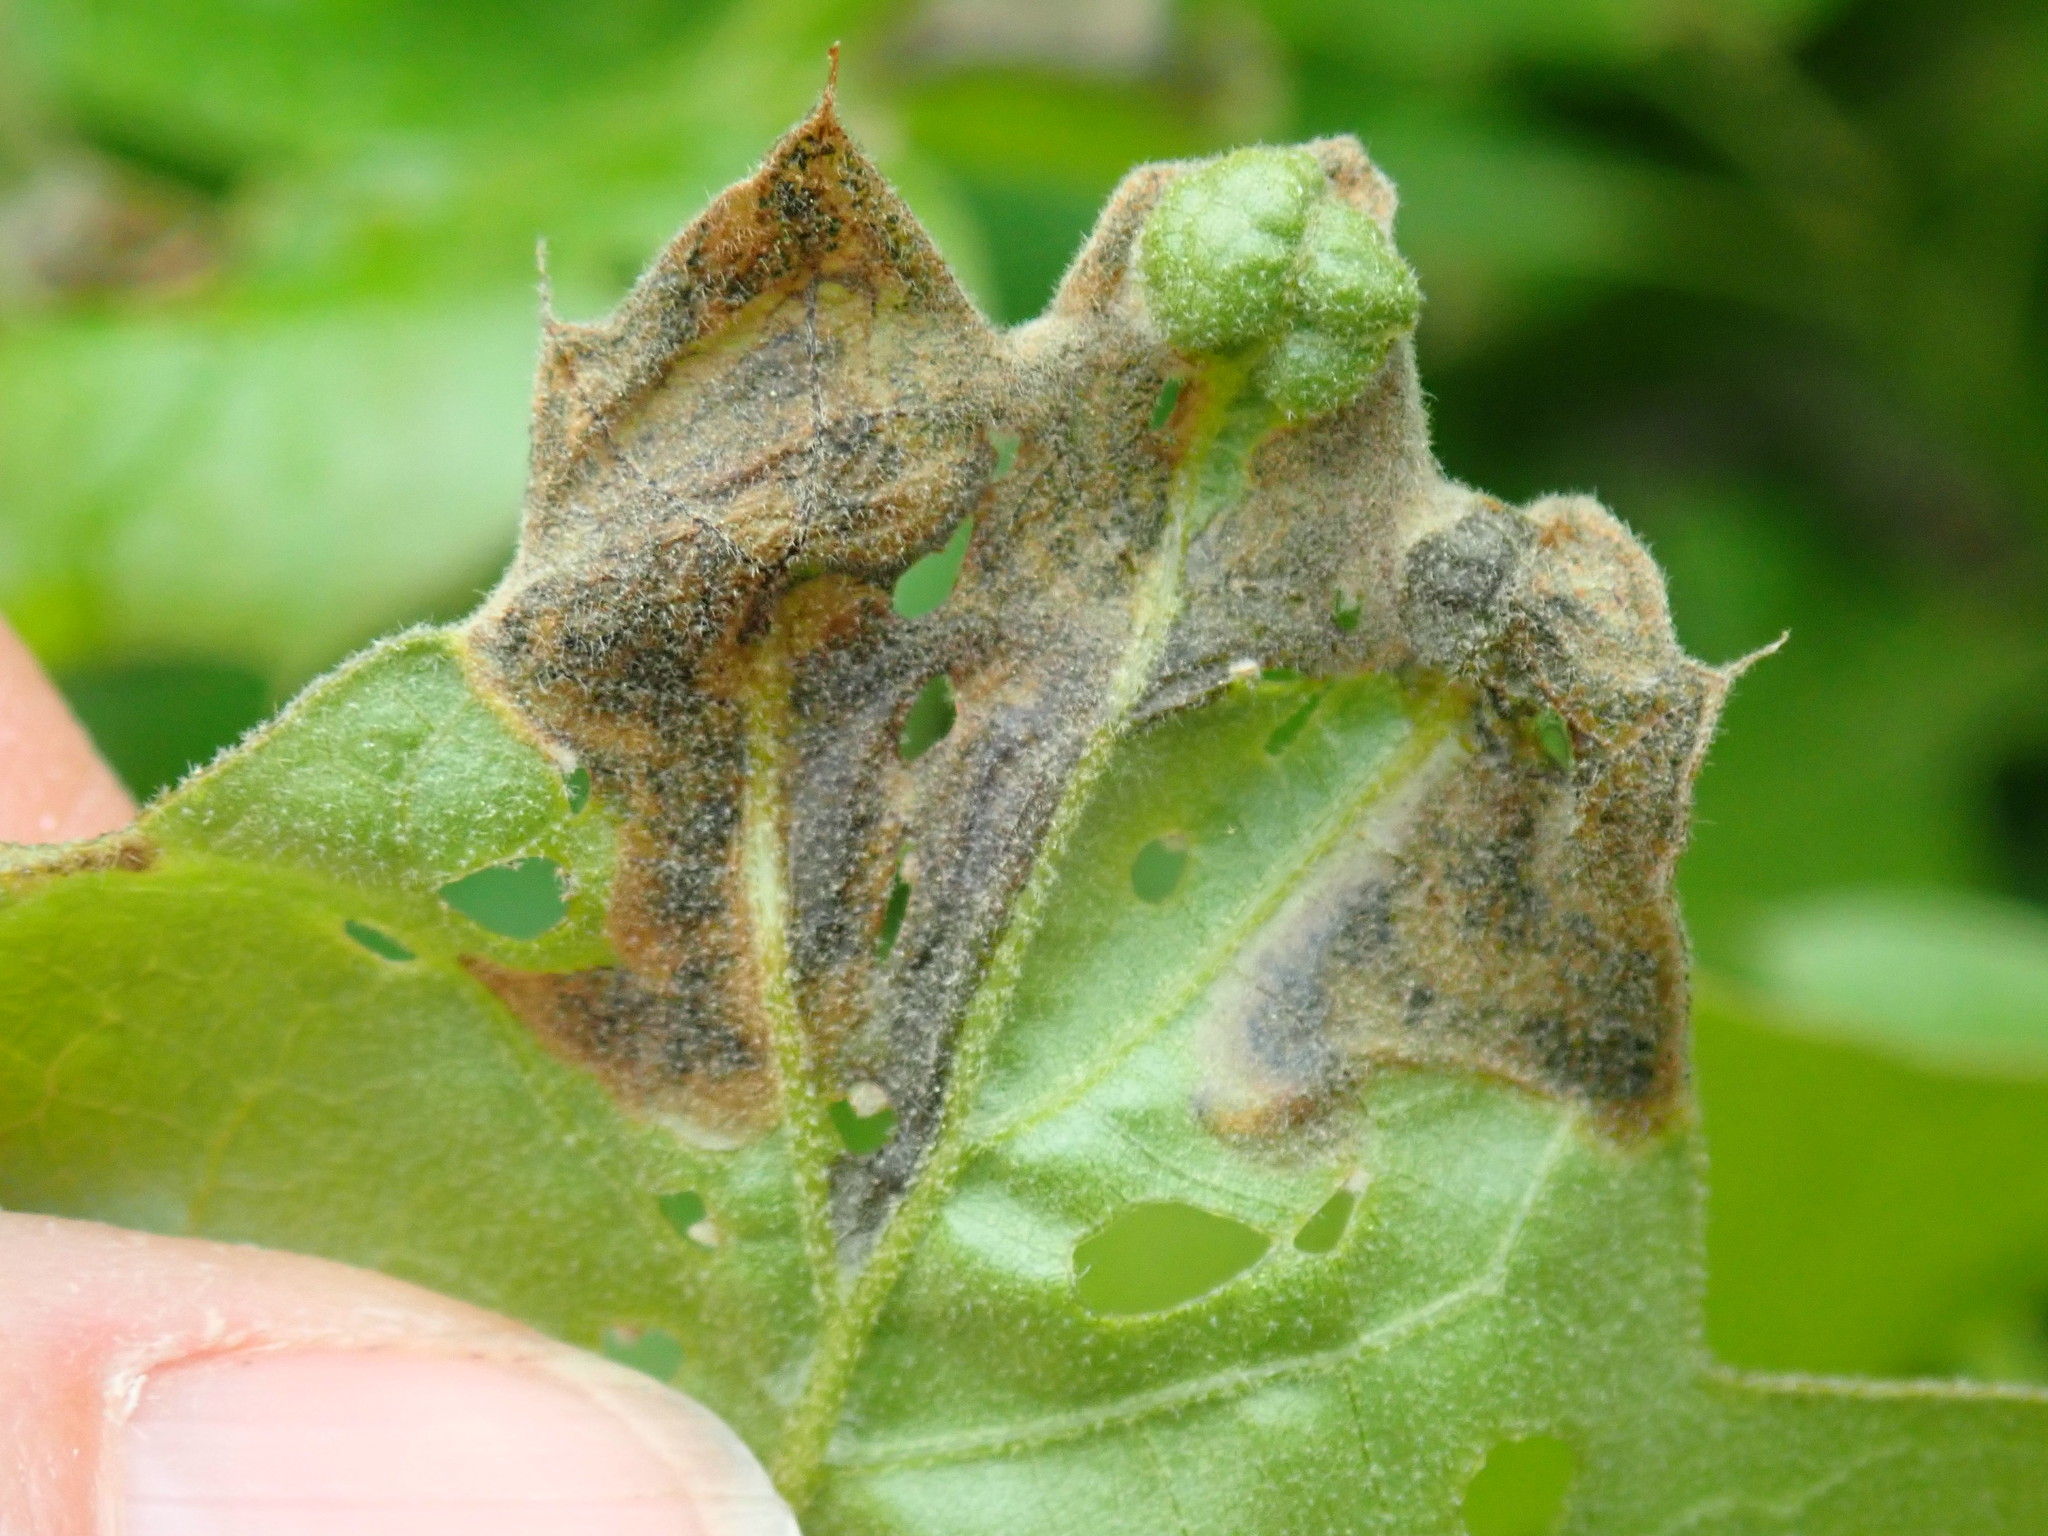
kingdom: Animalia
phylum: Arthropoda
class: Insecta
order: Diptera
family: Agromyzidae
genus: Japanagromyza
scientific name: Japanagromyza viridula
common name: Oak shothole leafminer
